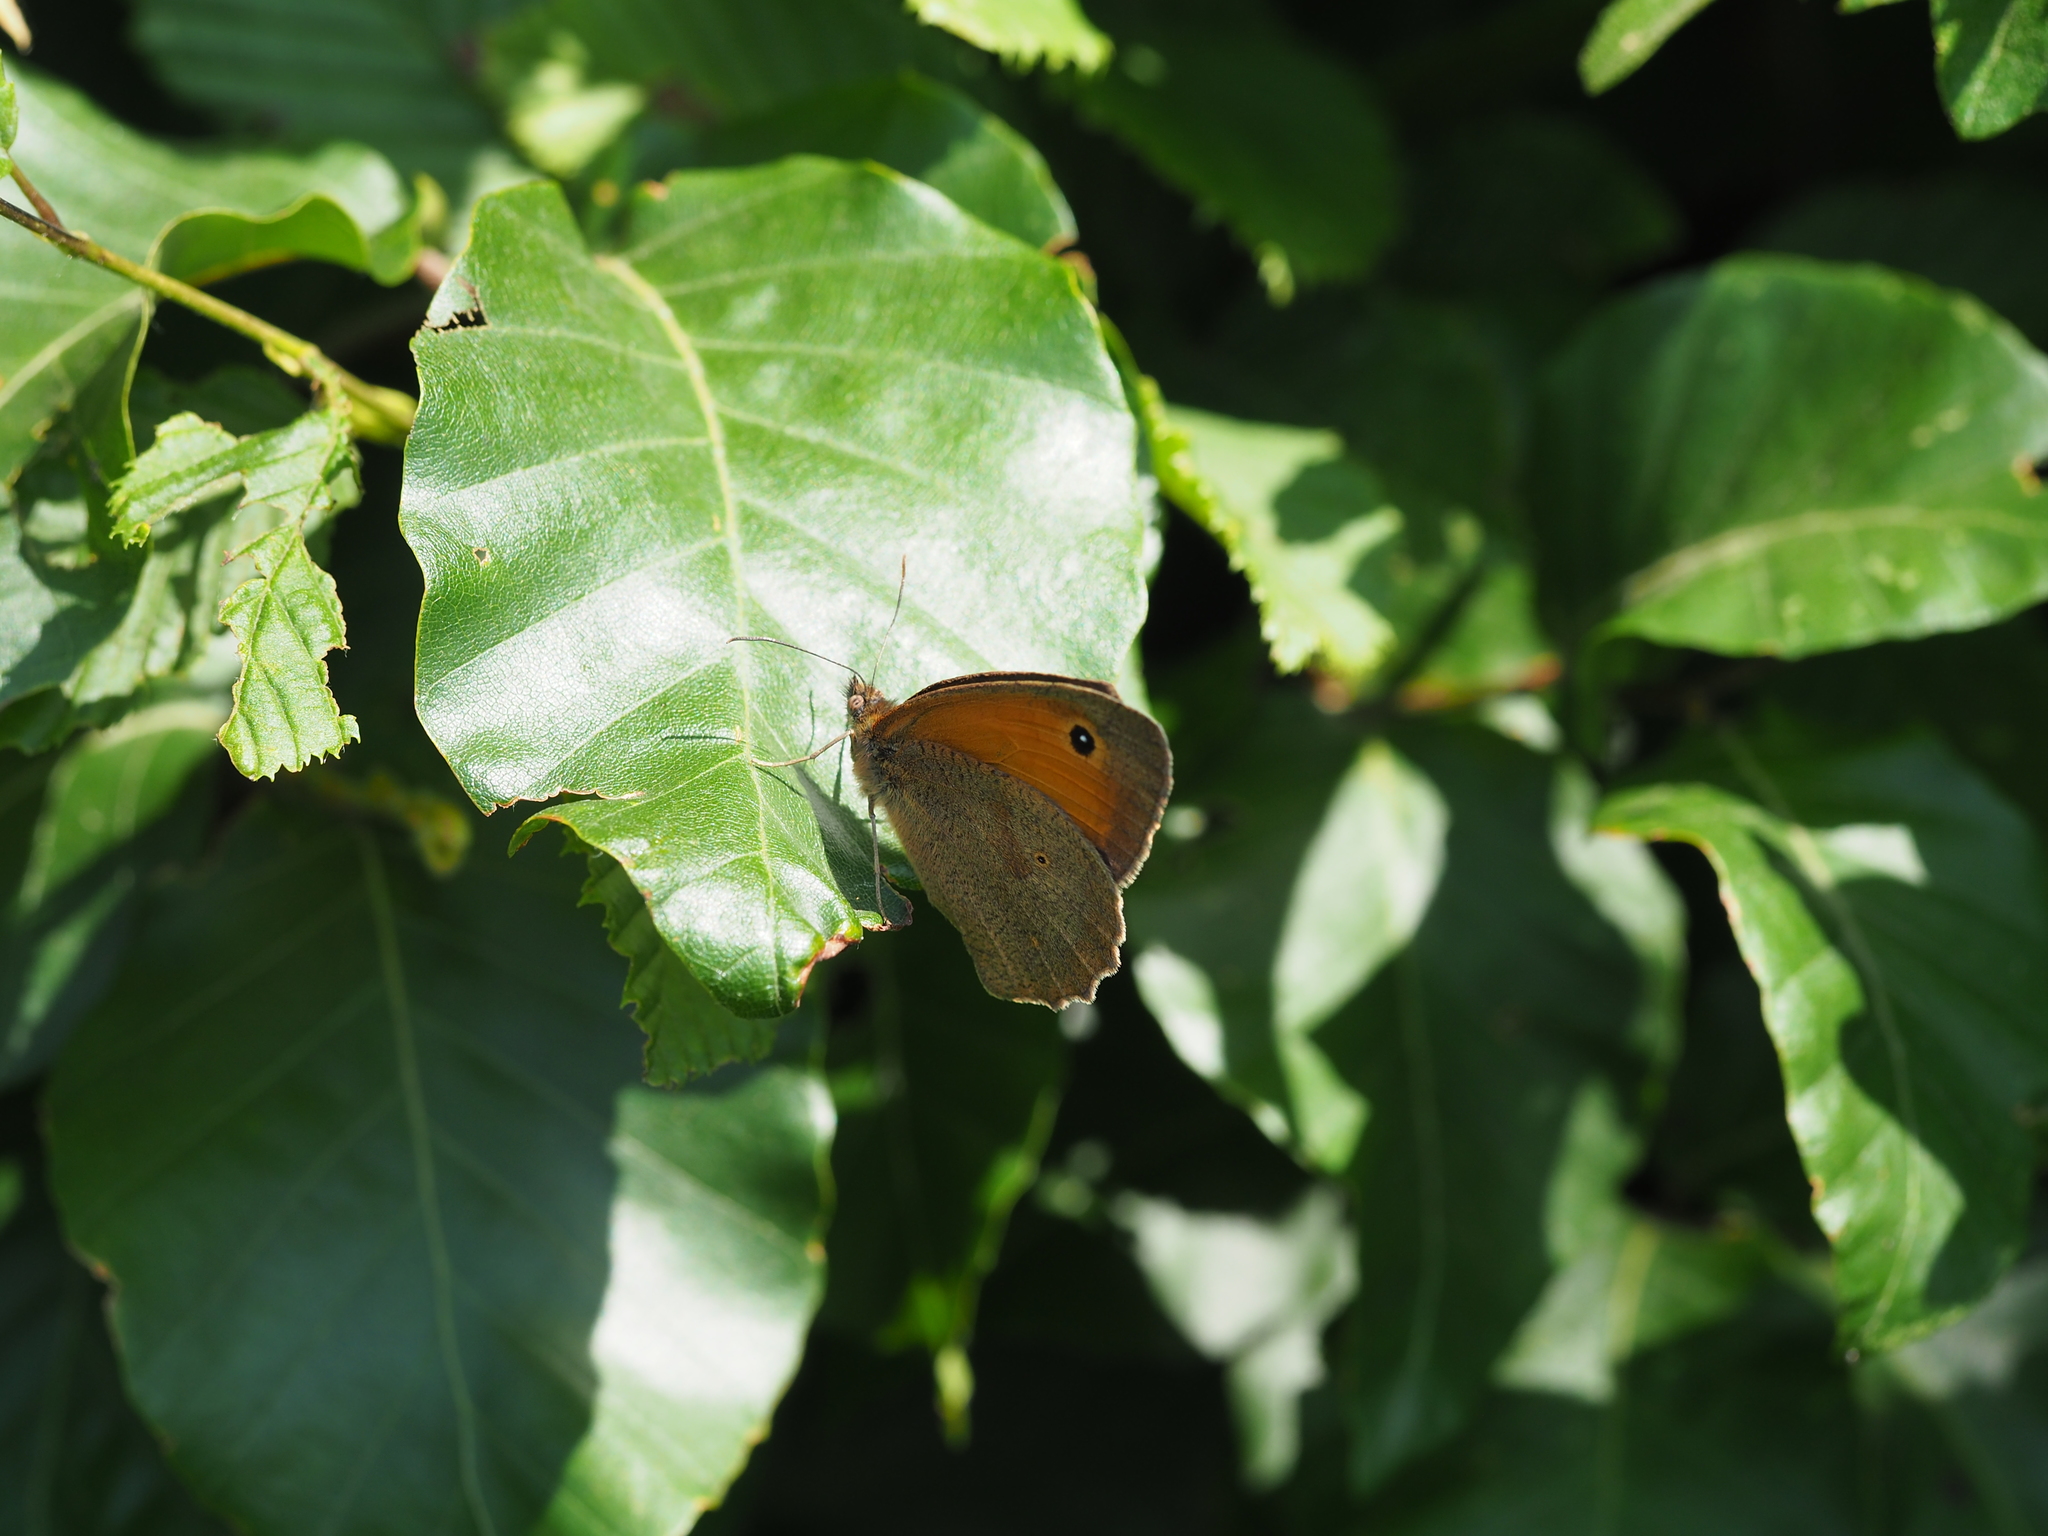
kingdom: Animalia
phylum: Arthropoda
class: Insecta
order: Lepidoptera
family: Nymphalidae
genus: Maniola
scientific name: Maniola jurtina
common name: Meadow brown
